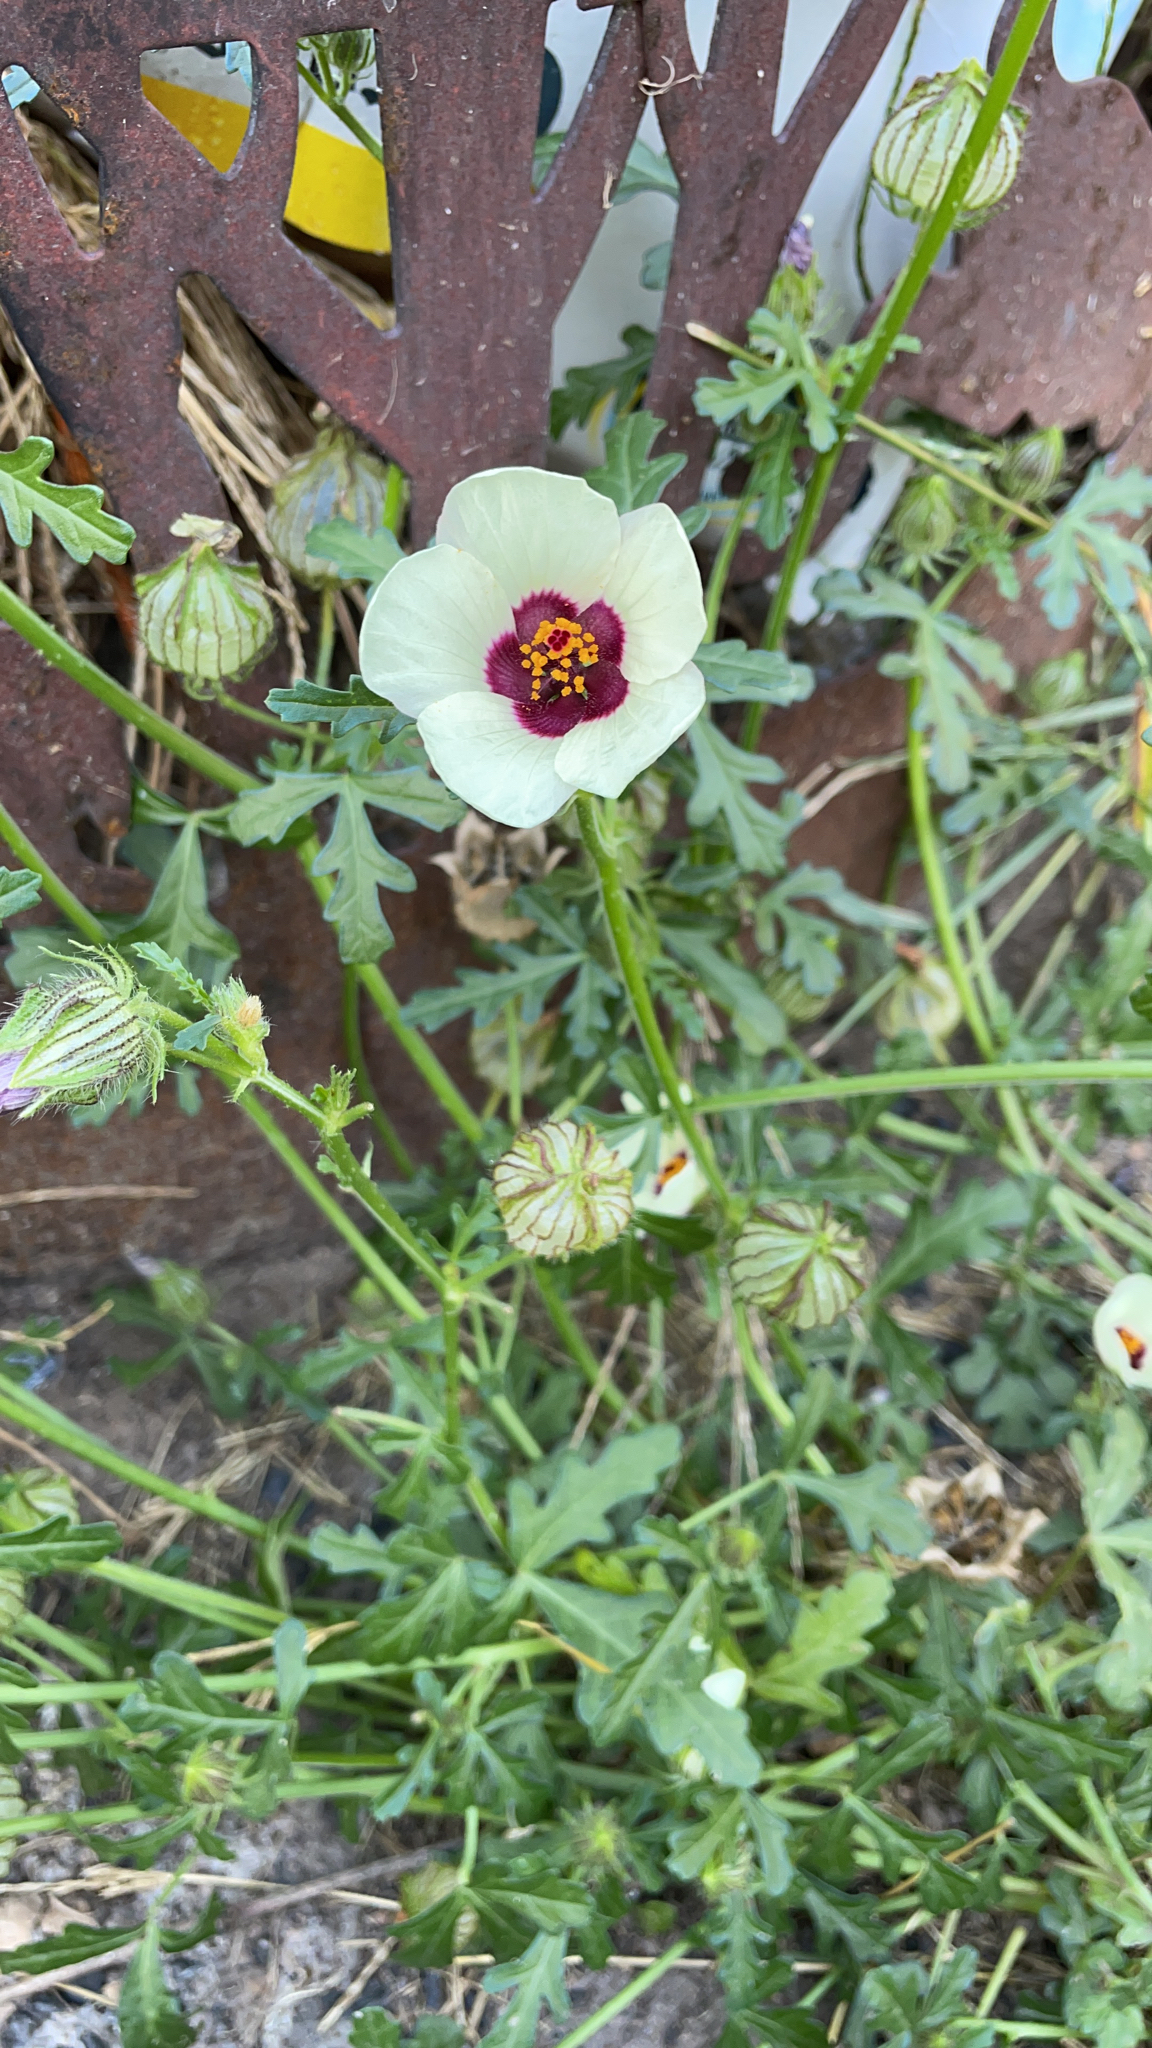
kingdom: Plantae
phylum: Tracheophyta
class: Magnoliopsida
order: Malvales
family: Malvaceae
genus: Hibiscus
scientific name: Hibiscus trionum
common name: Bladder ketmia
